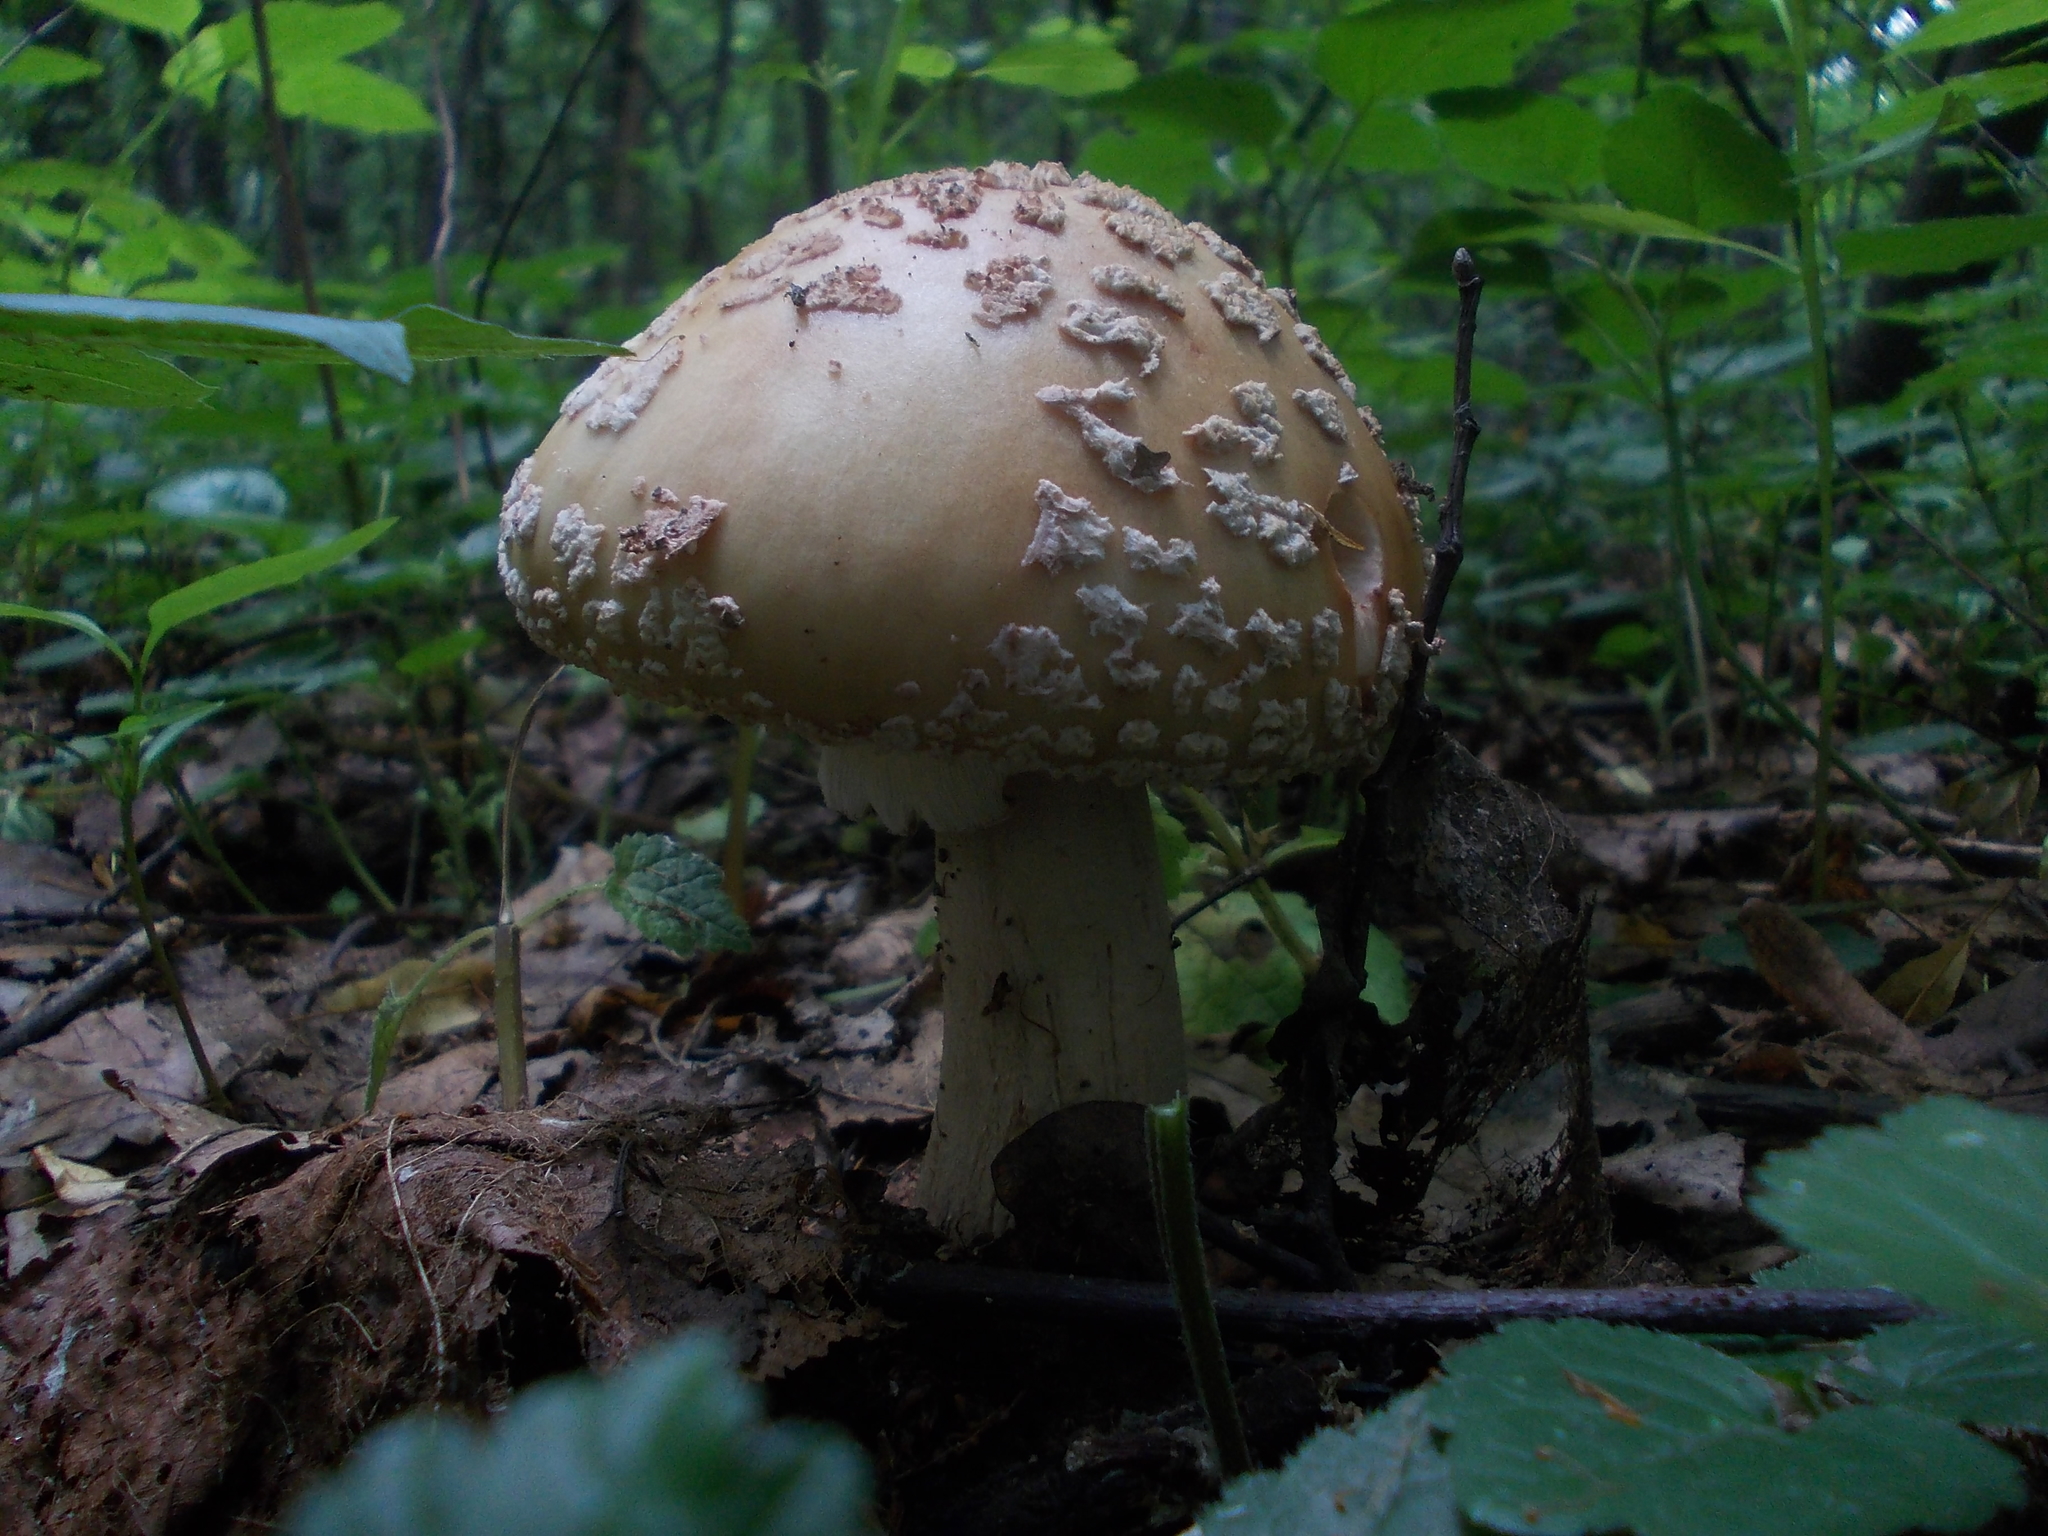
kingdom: Fungi
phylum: Basidiomycota
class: Agaricomycetes
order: Agaricales
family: Amanitaceae
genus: Amanita
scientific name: Amanita rubescens
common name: Blusher
